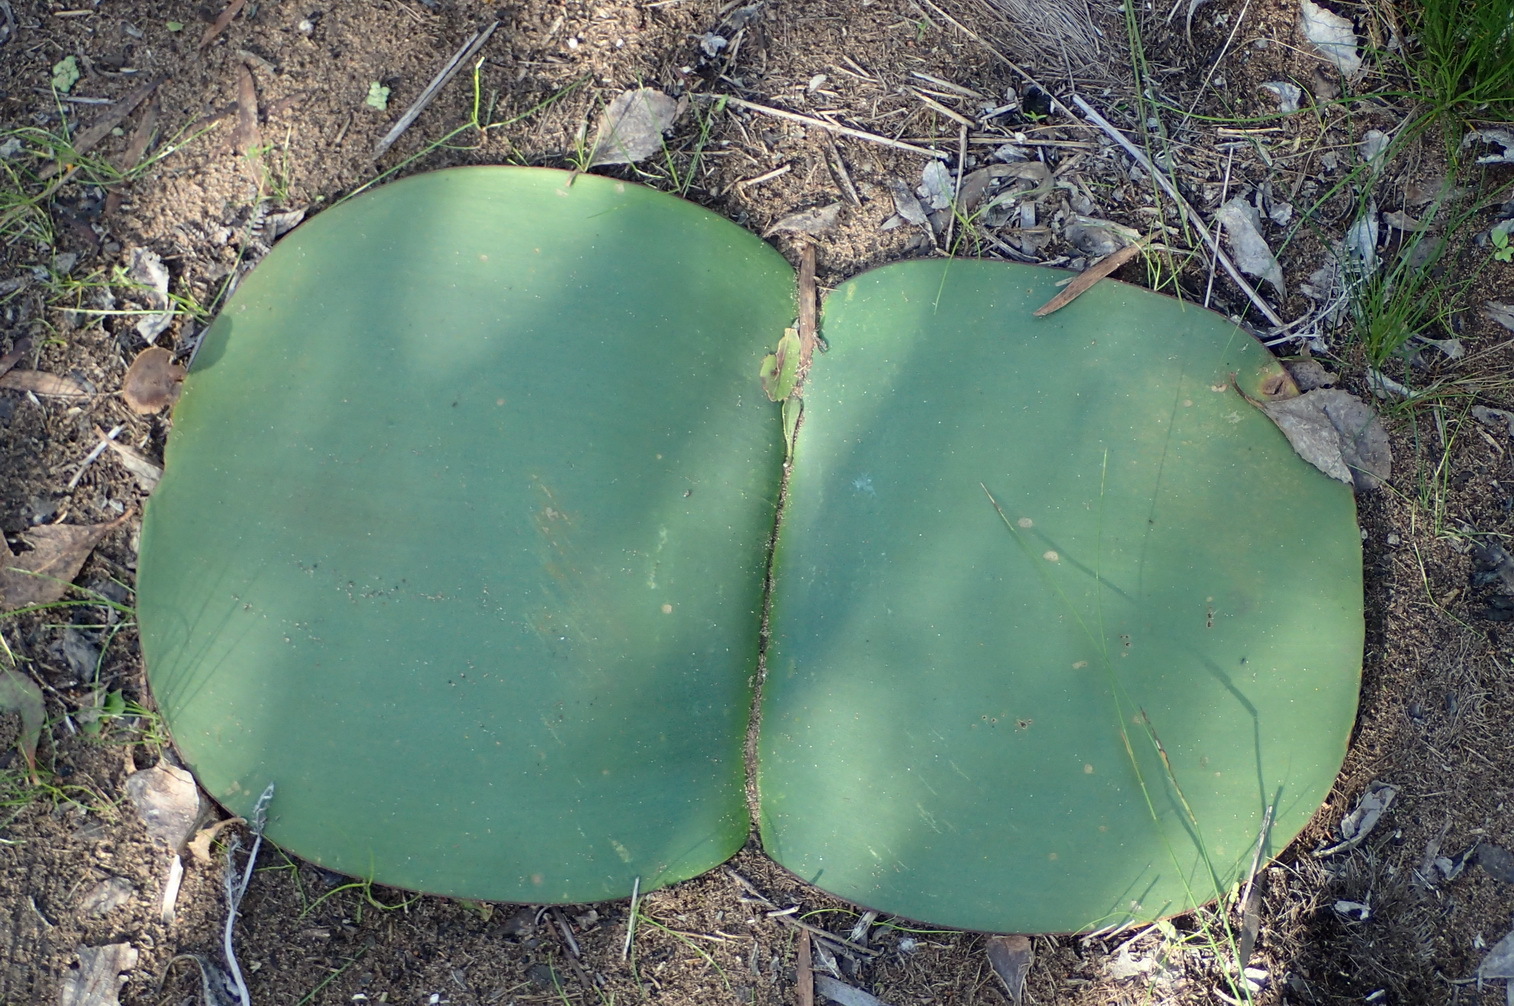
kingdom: Plantae
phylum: Tracheophyta
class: Liliopsida
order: Asparagales
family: Amaryllidaceae
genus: Haemanthus
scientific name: Haemanthus sanguineus
